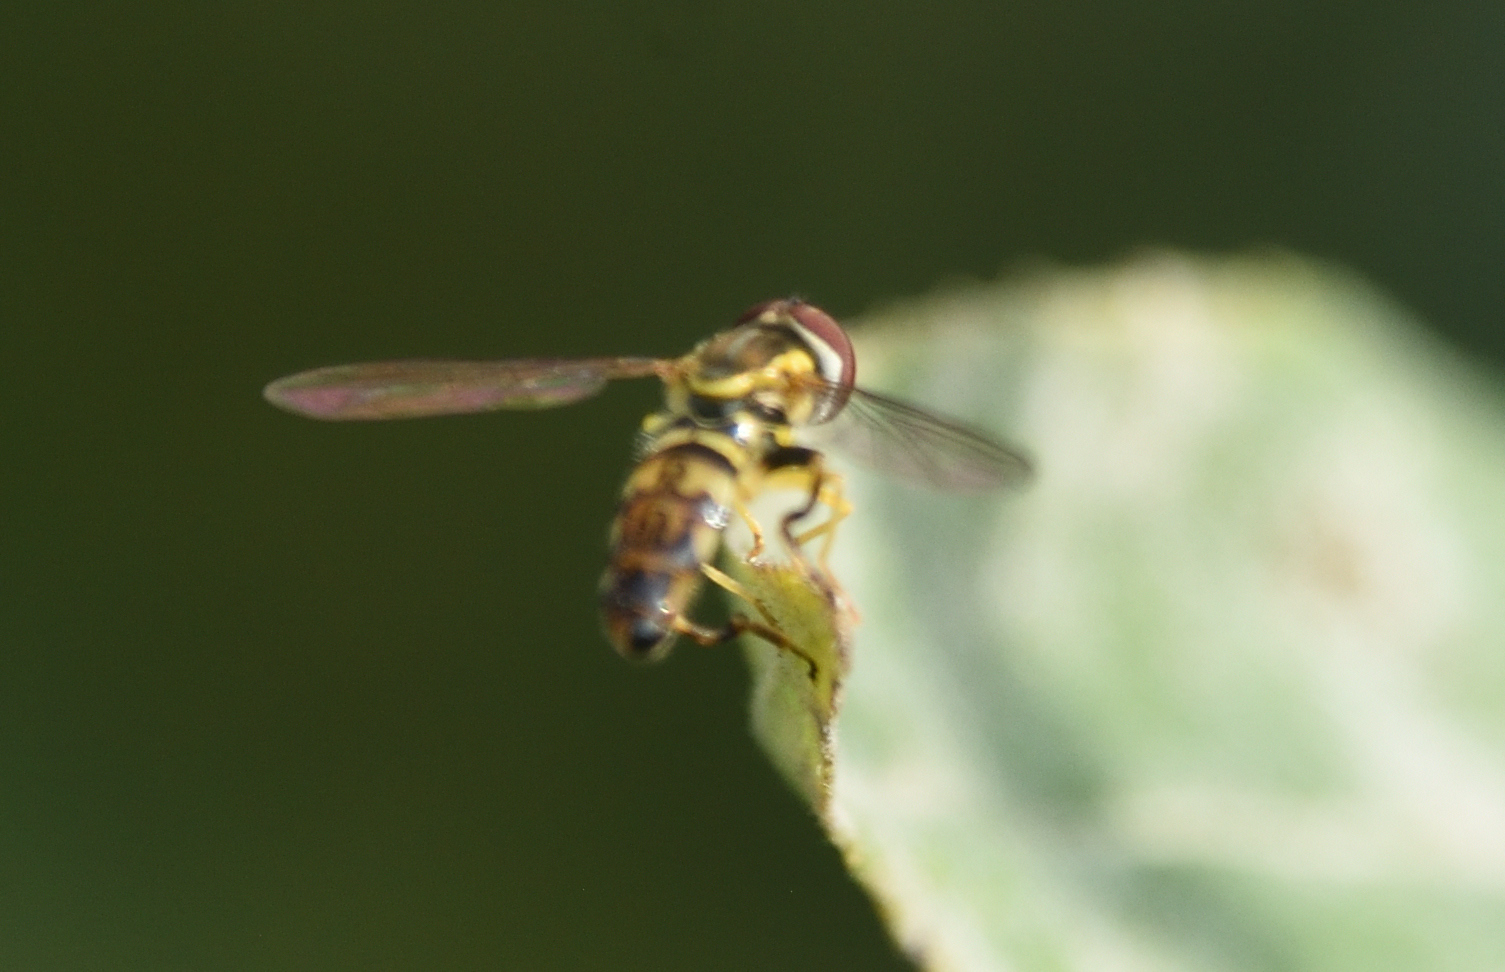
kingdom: Animalia
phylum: Arthropoda
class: Insecta
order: Diptera
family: Syrphidae
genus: Toxomerus
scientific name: Toxomerus geminatus
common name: Eastern calligrapher
